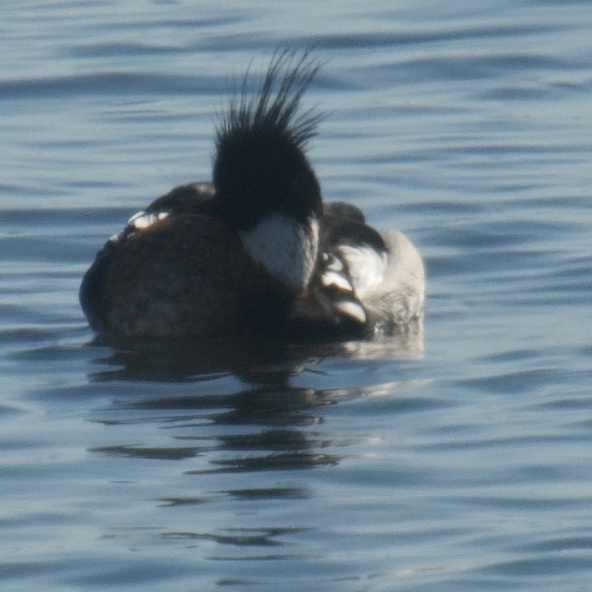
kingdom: Animalia
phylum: Chordata
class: Aves
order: Anseriformes
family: Anatidae
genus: Mergus
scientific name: Mergus serrator
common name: Red-breasted merganser
